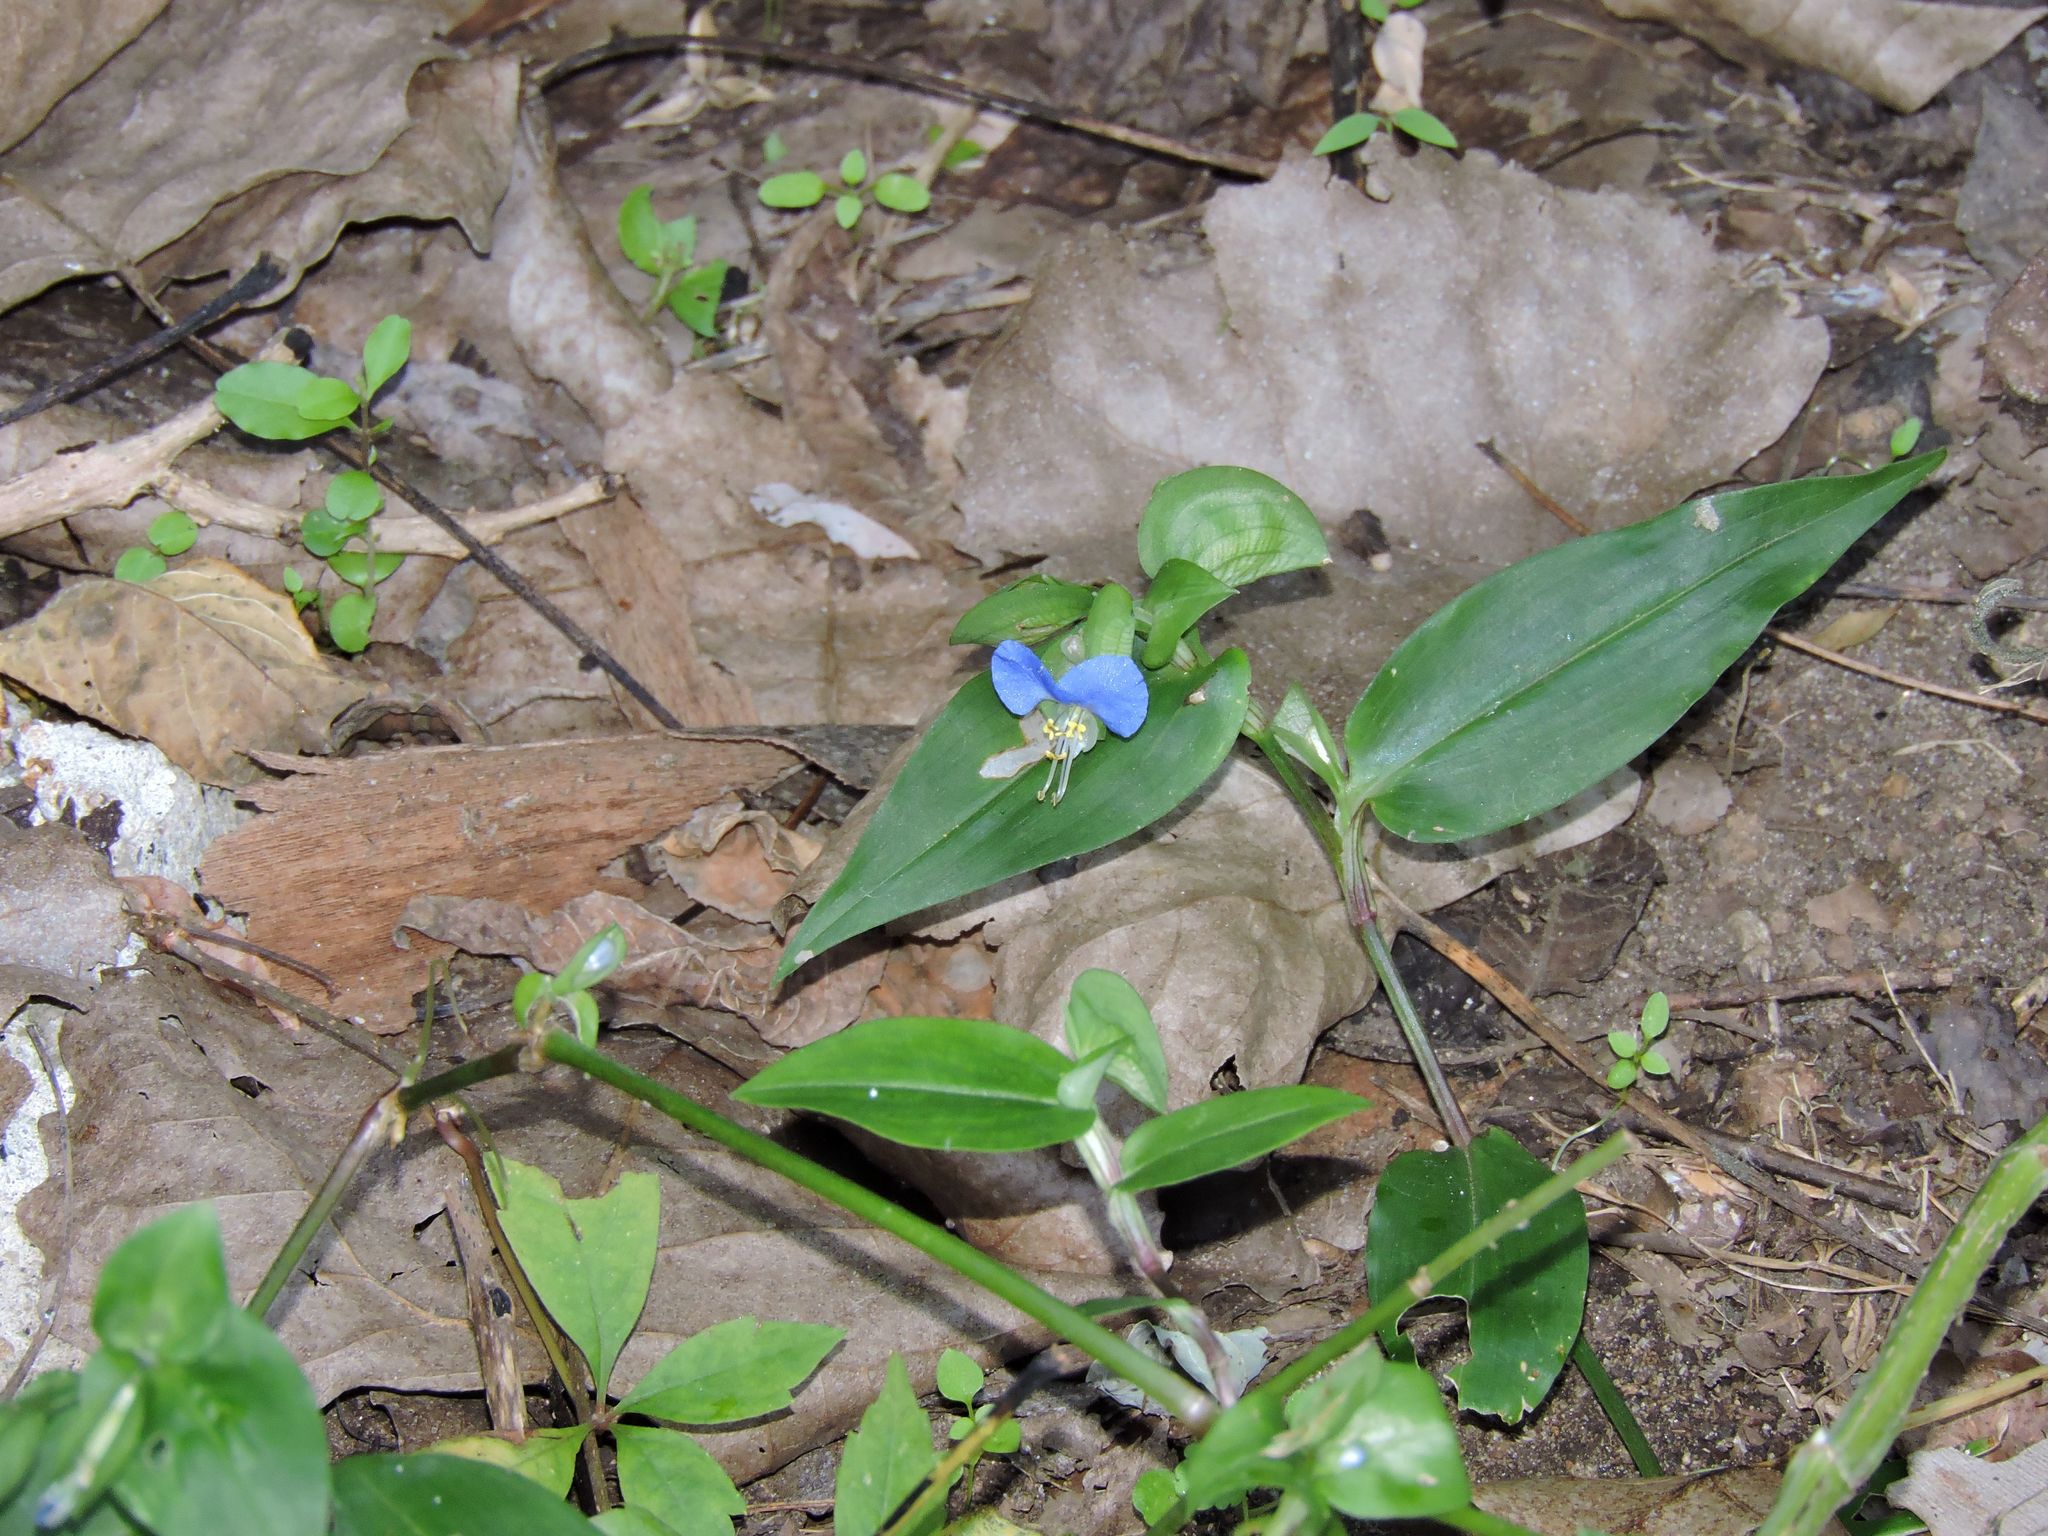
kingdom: Plantae
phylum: Tracheophyta
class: Liliopsida
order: Commelinales
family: Commelinaceae
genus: Commelina
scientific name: Commelina communis
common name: Asiatic dayflower
